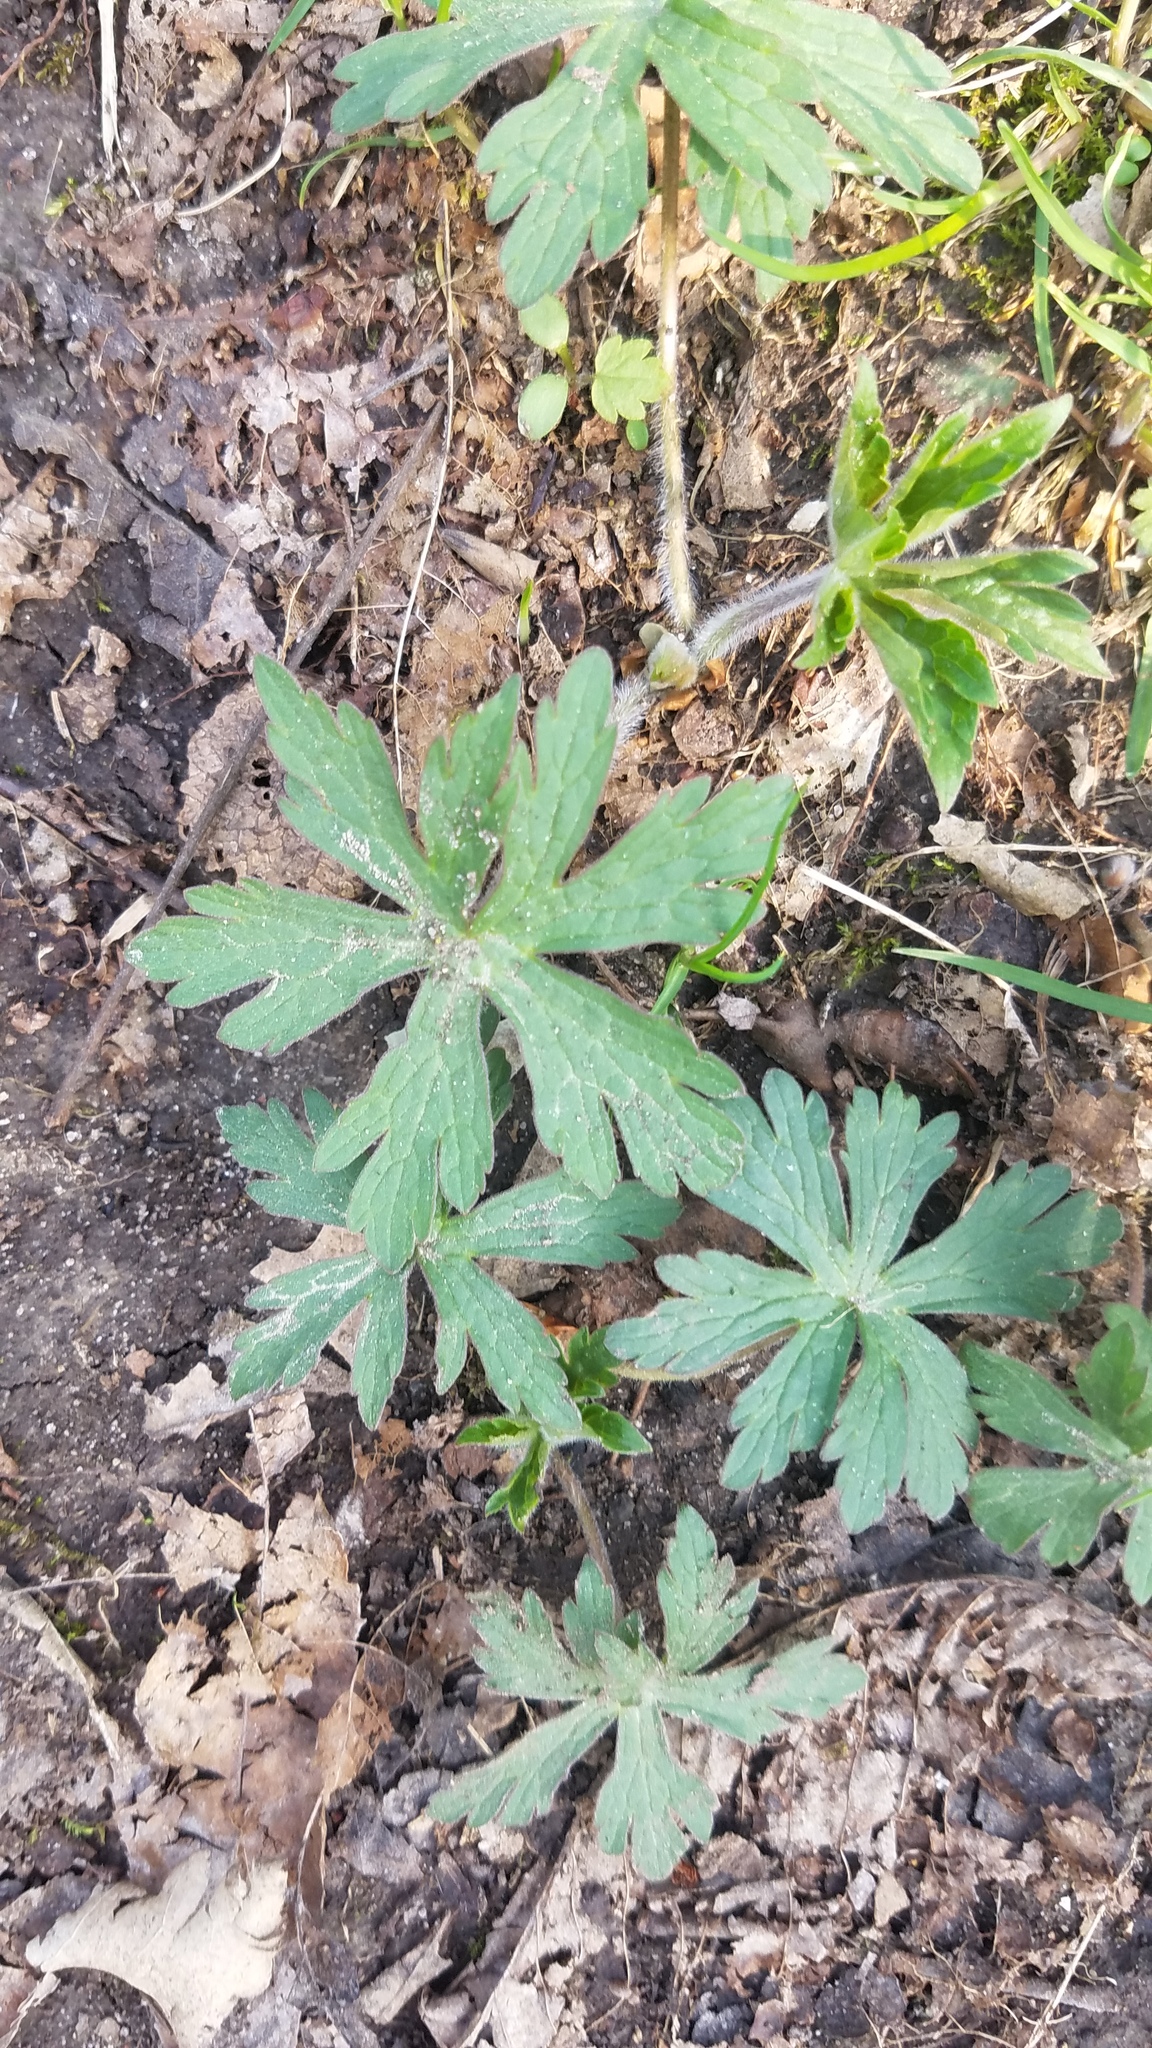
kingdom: Plantae
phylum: Tracheophyta
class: Magnoliopsida
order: Geraniales
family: Geraniaceae
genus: Geranium
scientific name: Geranium maculatum
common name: Spotted geranium
